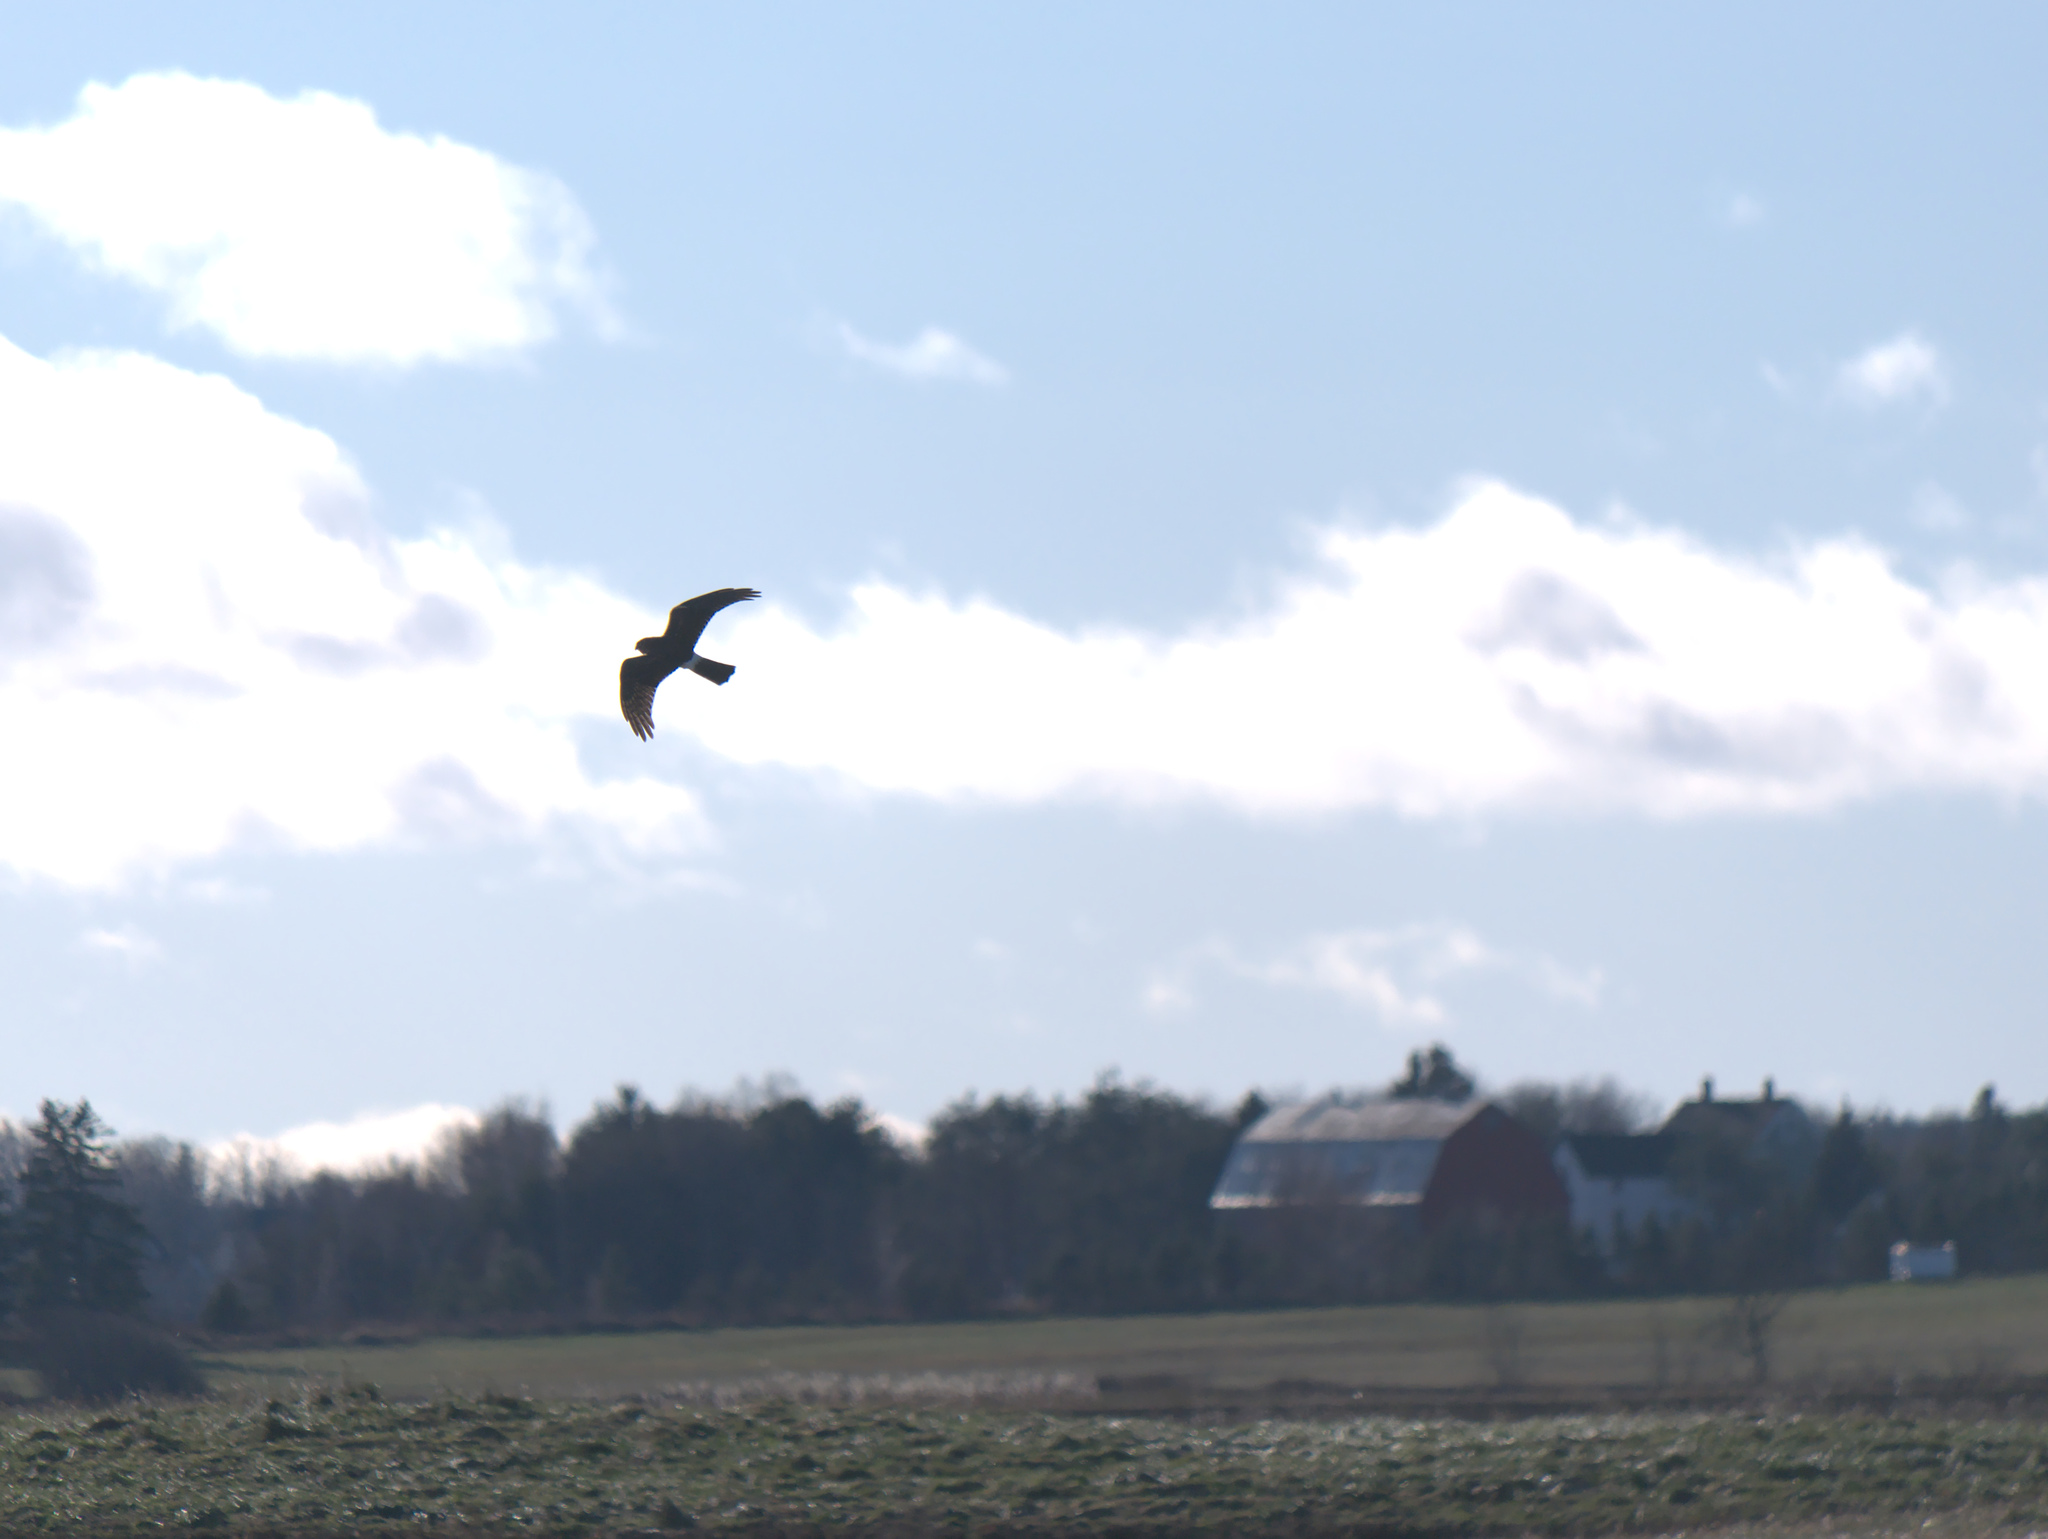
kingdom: Animalia
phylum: Chordata
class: Aves
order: Accipitriformes
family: Accipitridae
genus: Circus
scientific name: Circus cyaneus
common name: Hen harrier
